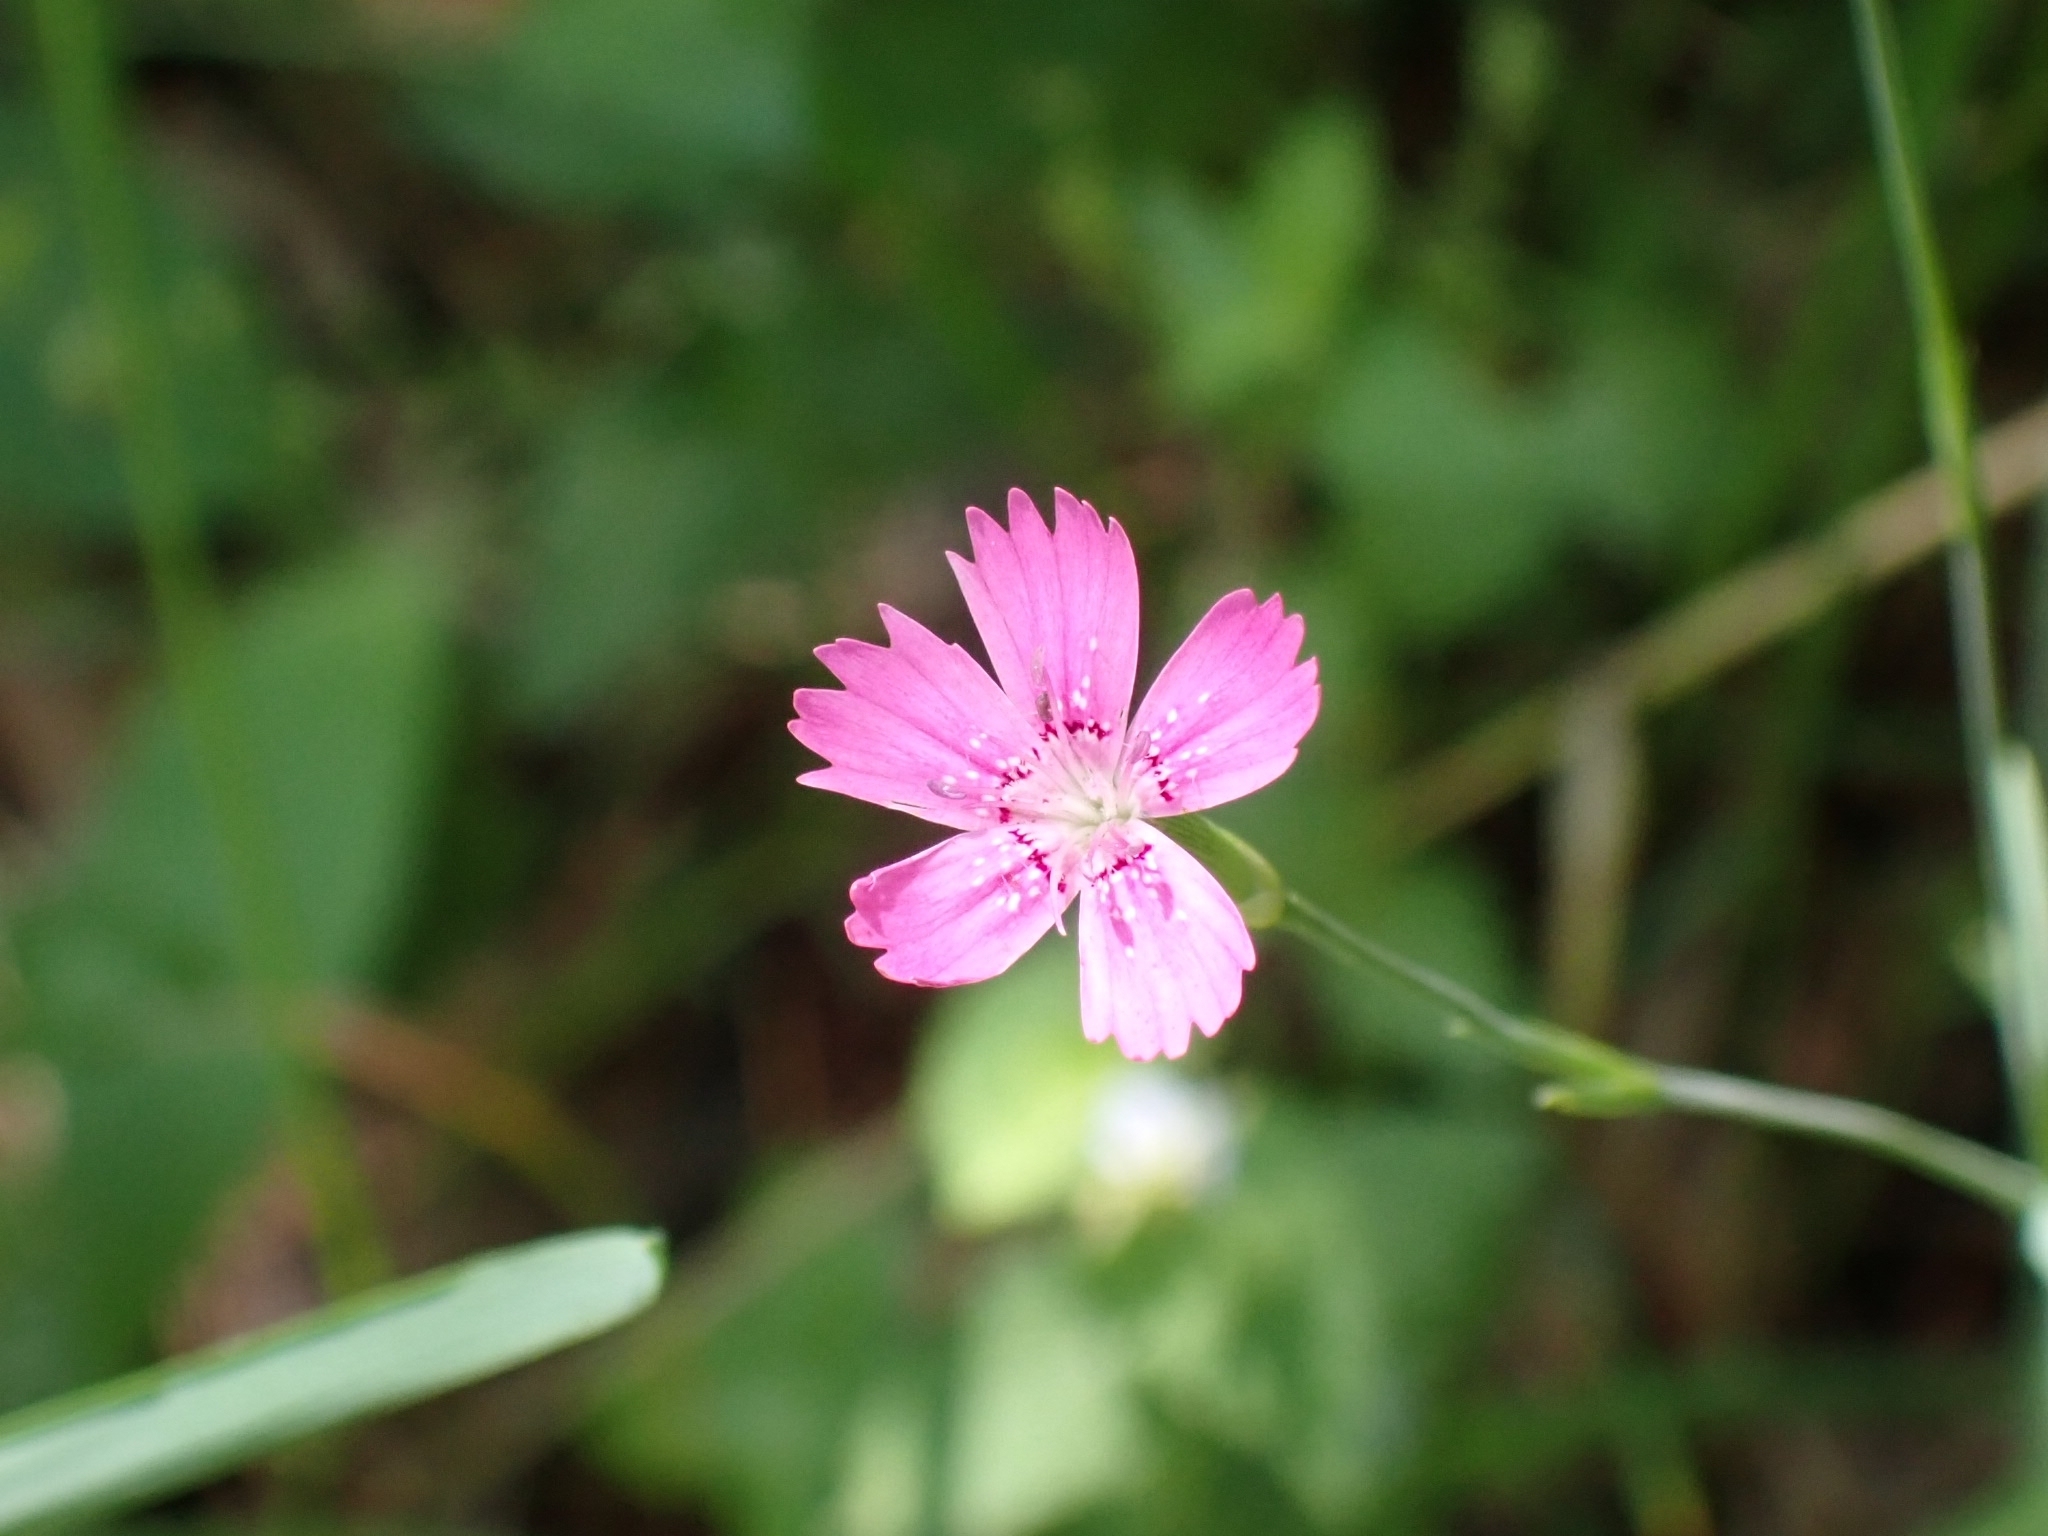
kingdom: Plantae
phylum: Tracheophyta
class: Magnoliopsida
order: Caryophyllales
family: Caryophyllaceae
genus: Dianthus
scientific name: Dianthus deltoides
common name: Maiden pink
